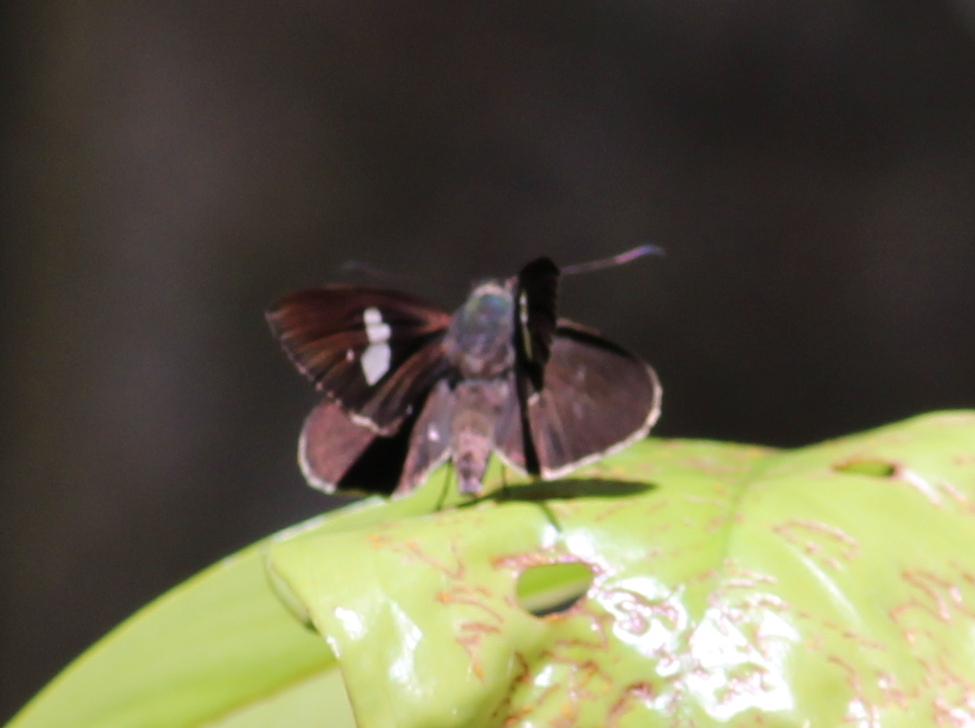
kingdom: Animalia
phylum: Arthropoda
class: Insecta
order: Lepidoptera
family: Hesperiidae
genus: Quedara
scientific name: Quedara basiflava
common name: Golden flitter
